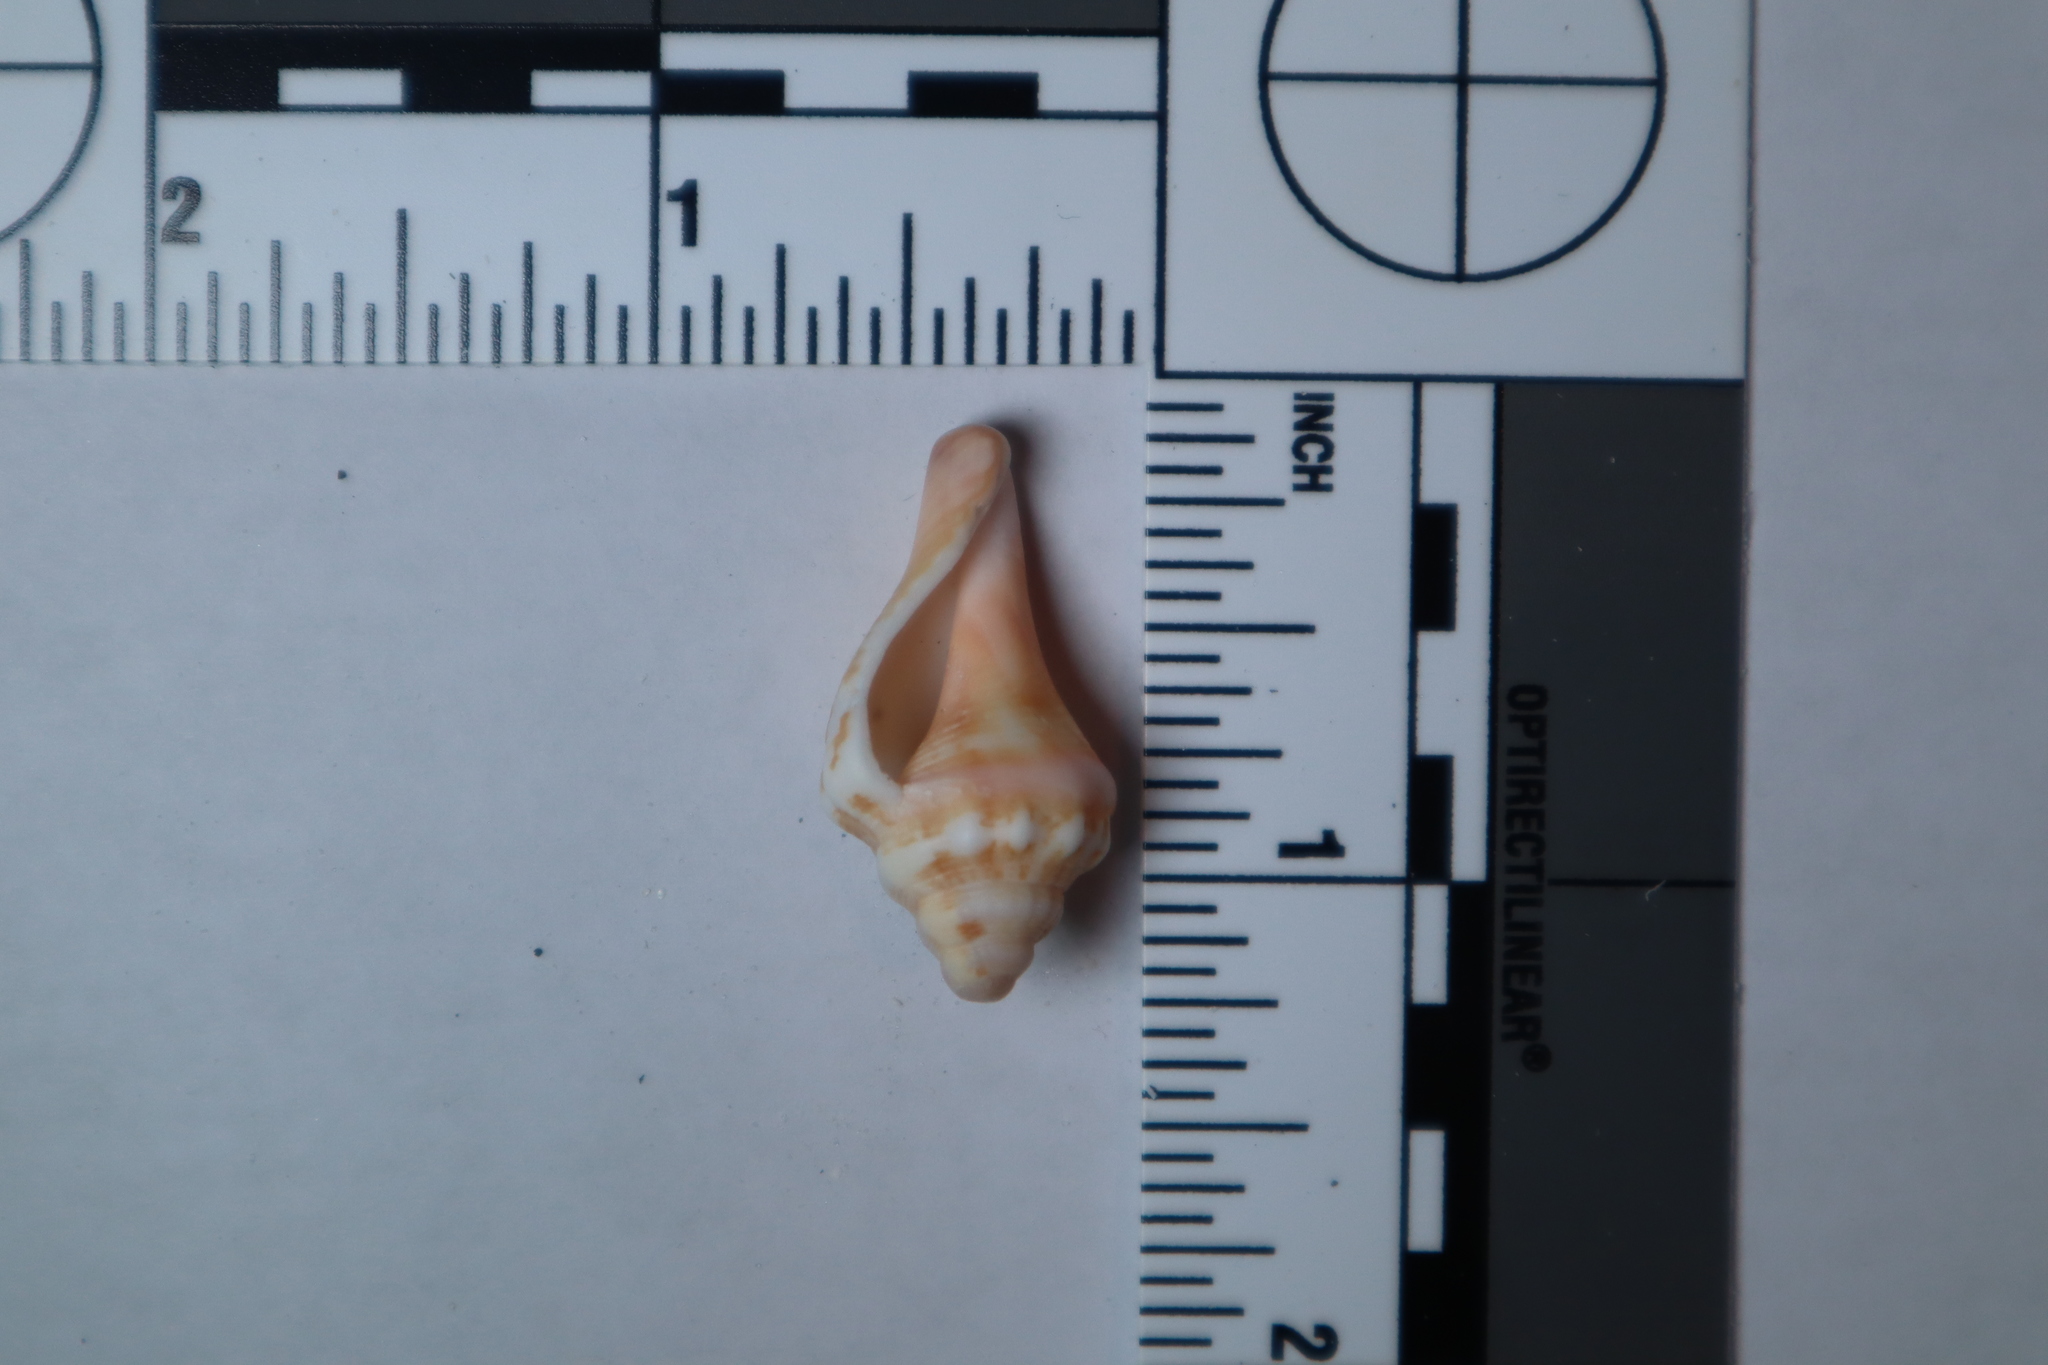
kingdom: Animalia
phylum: Mollusca
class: Gastropoda
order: Littorinimorpha
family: Strombidae
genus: Strombus
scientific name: Strombus alatus
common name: Florida fighting conch
